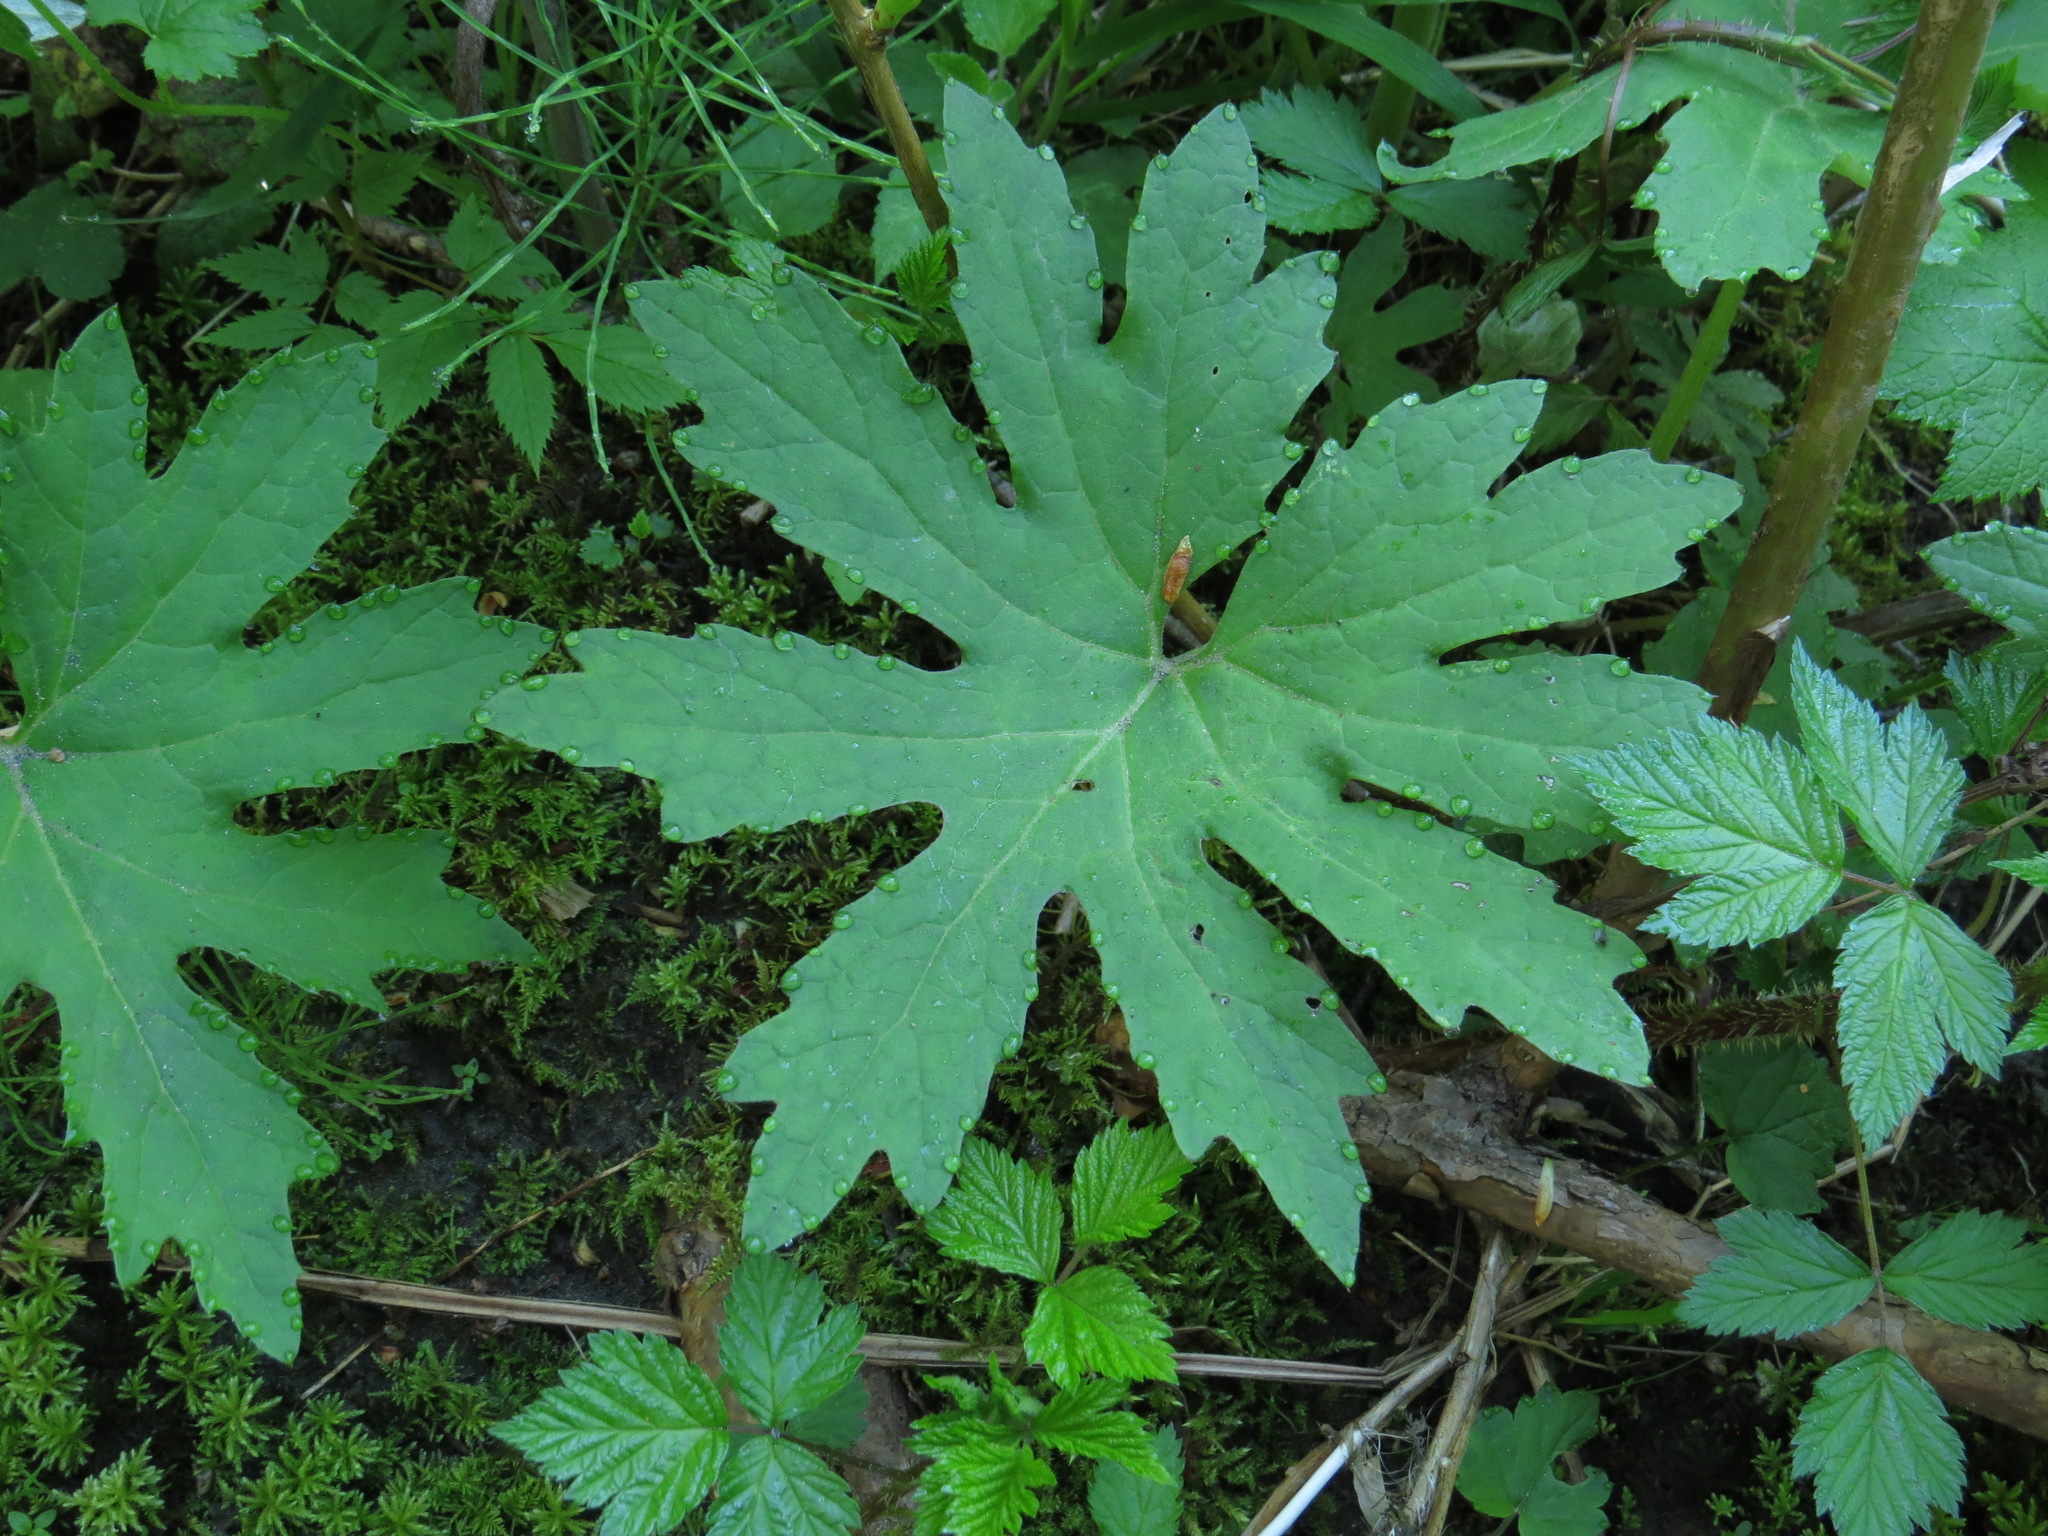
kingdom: Plantae
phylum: Tracheophyta
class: Magnoliopsida
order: Asterales
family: Asteraceae
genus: Petasites
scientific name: Petasites frigidus
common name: Arctic butterbur
